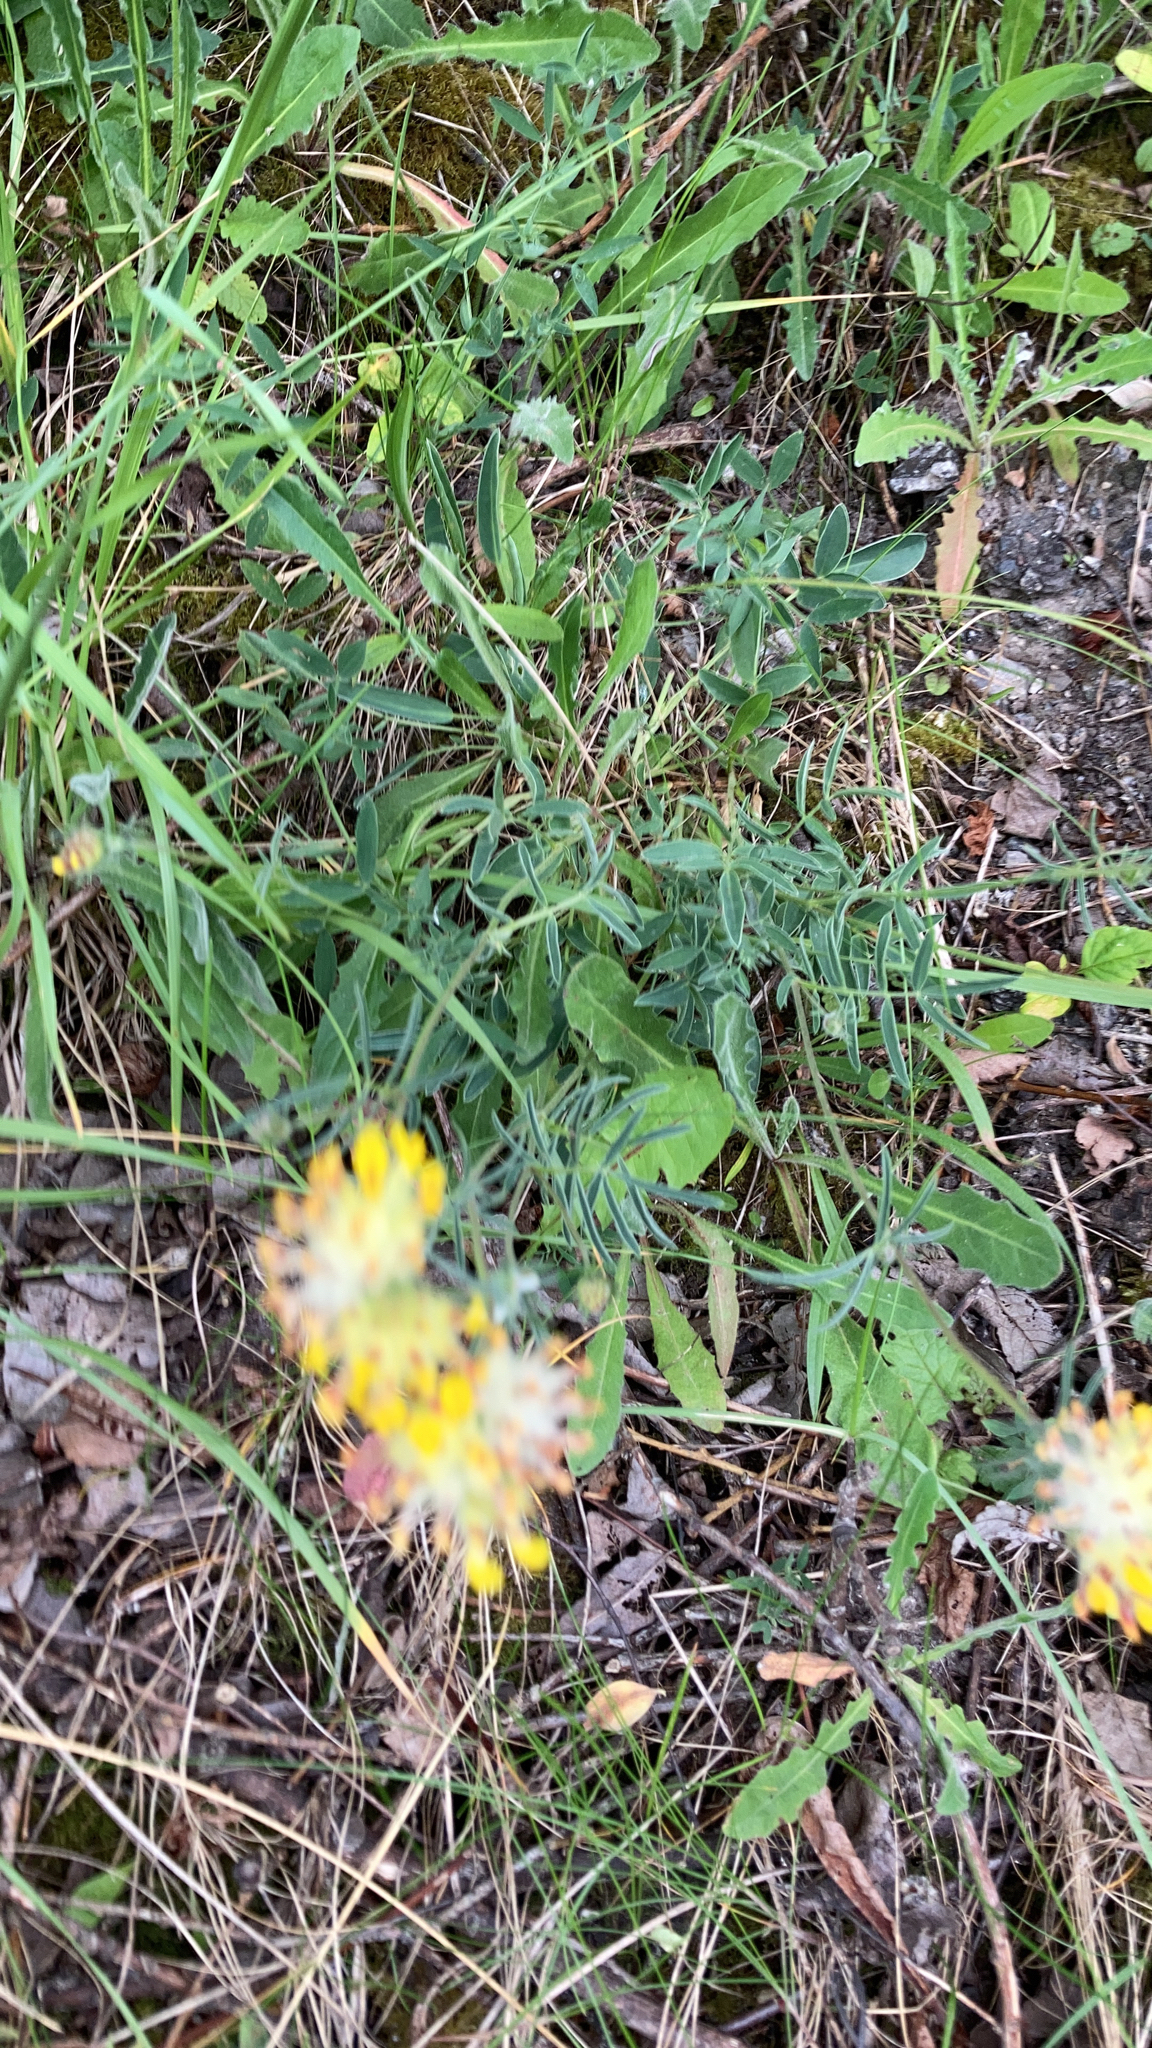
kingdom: Plantae
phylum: Tracheophyta
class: Magnoliopsida
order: Fabales
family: Fabaceae
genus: Anthyllis
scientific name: Anthyllis vulneraria
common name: Kidney vetch
